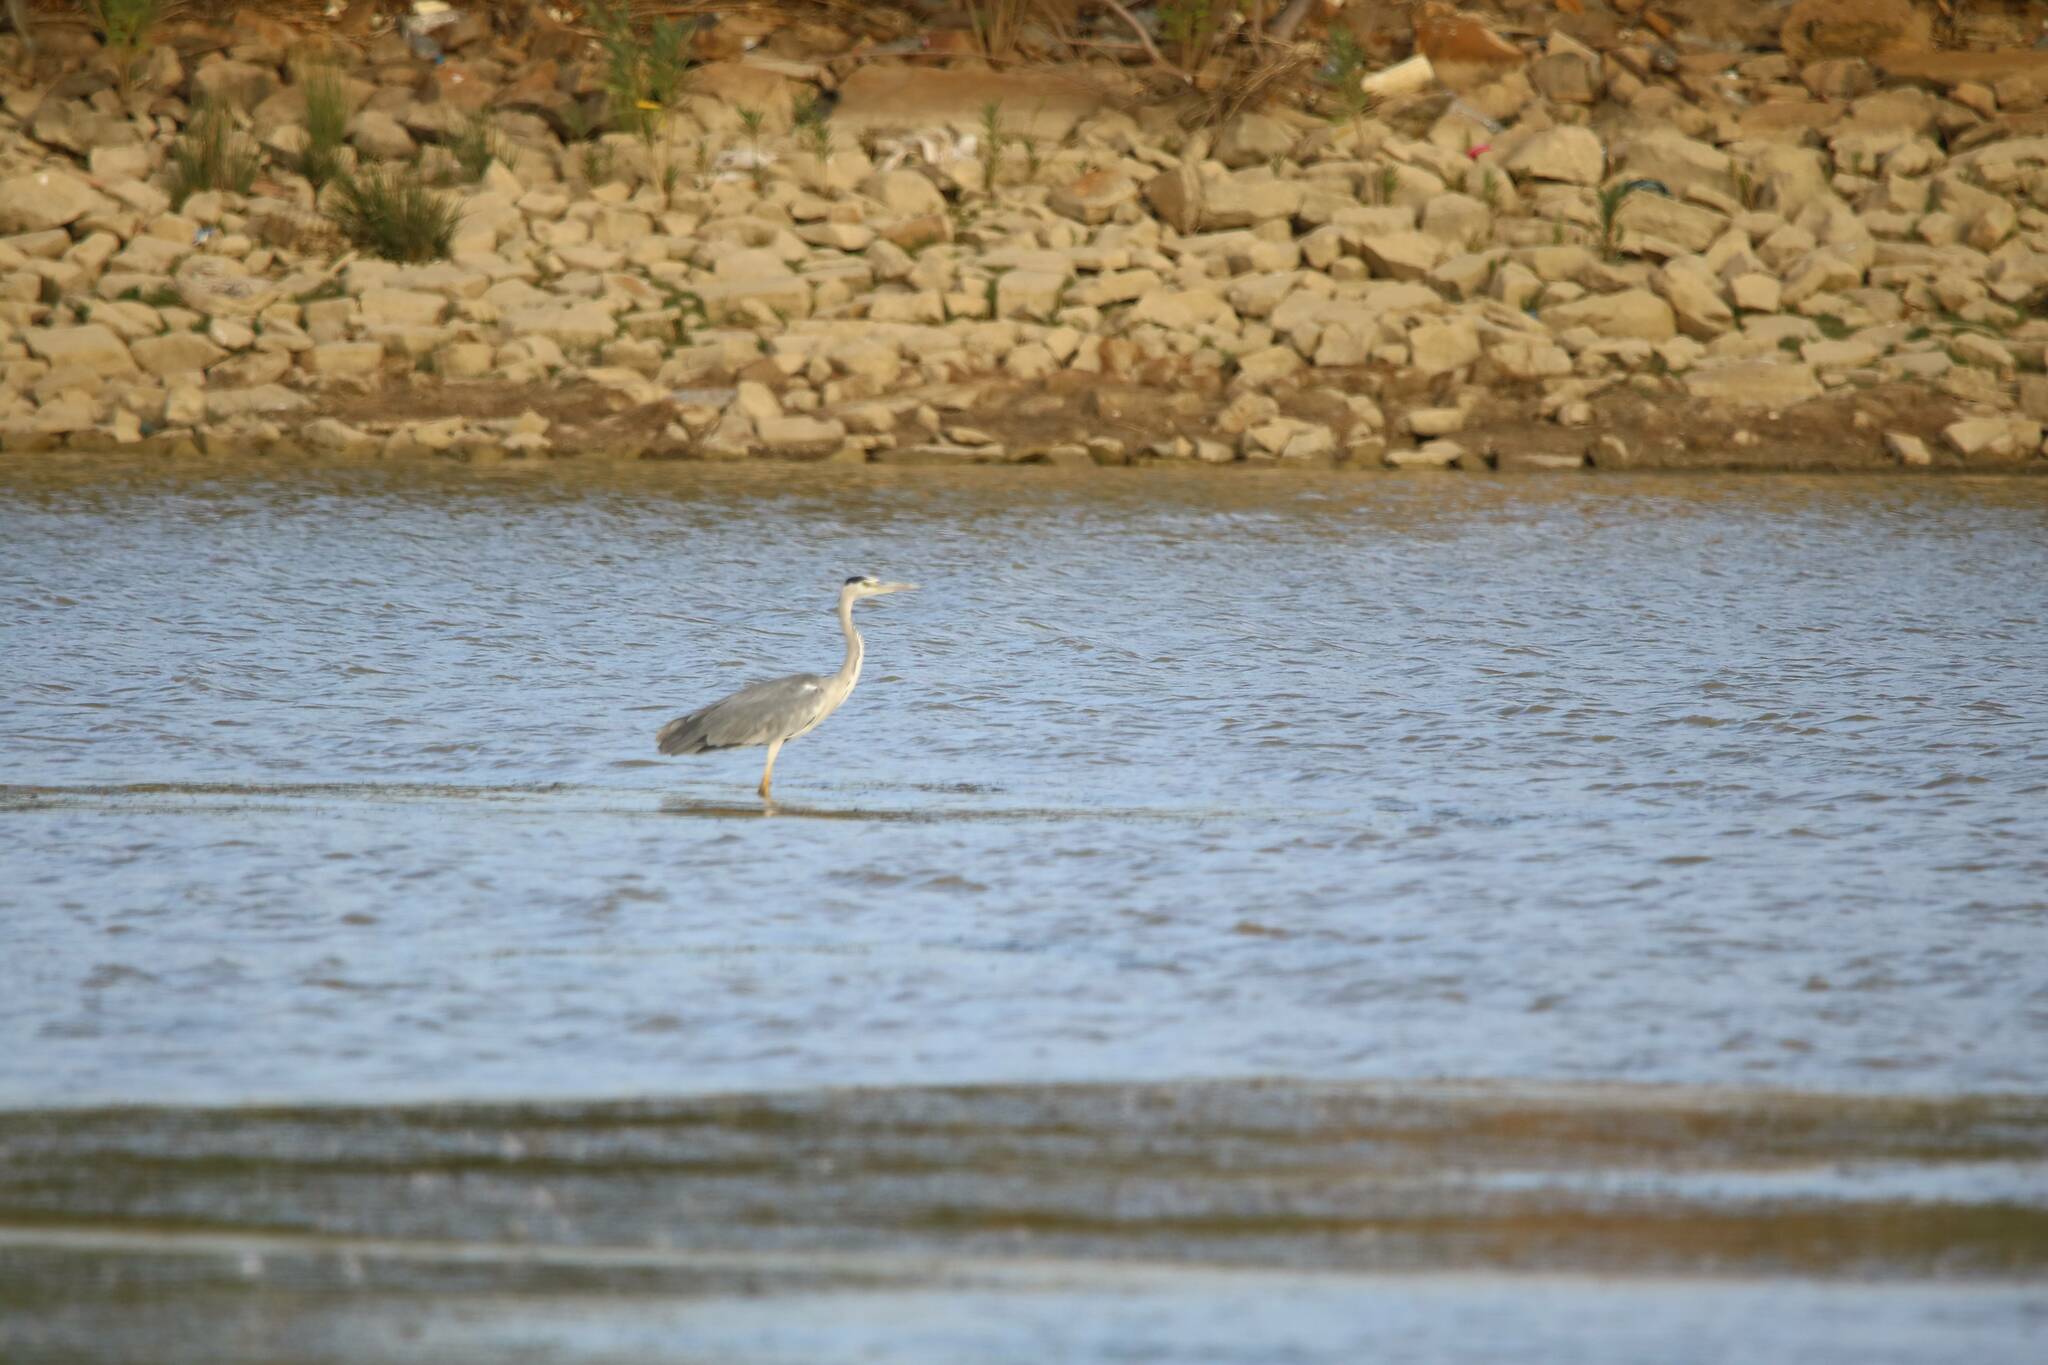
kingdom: Animalia
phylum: Chordata
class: Aves
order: Pelecaniformes
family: Ardeidae
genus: Ardea
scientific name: Ardea cinerea
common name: Grey heron
